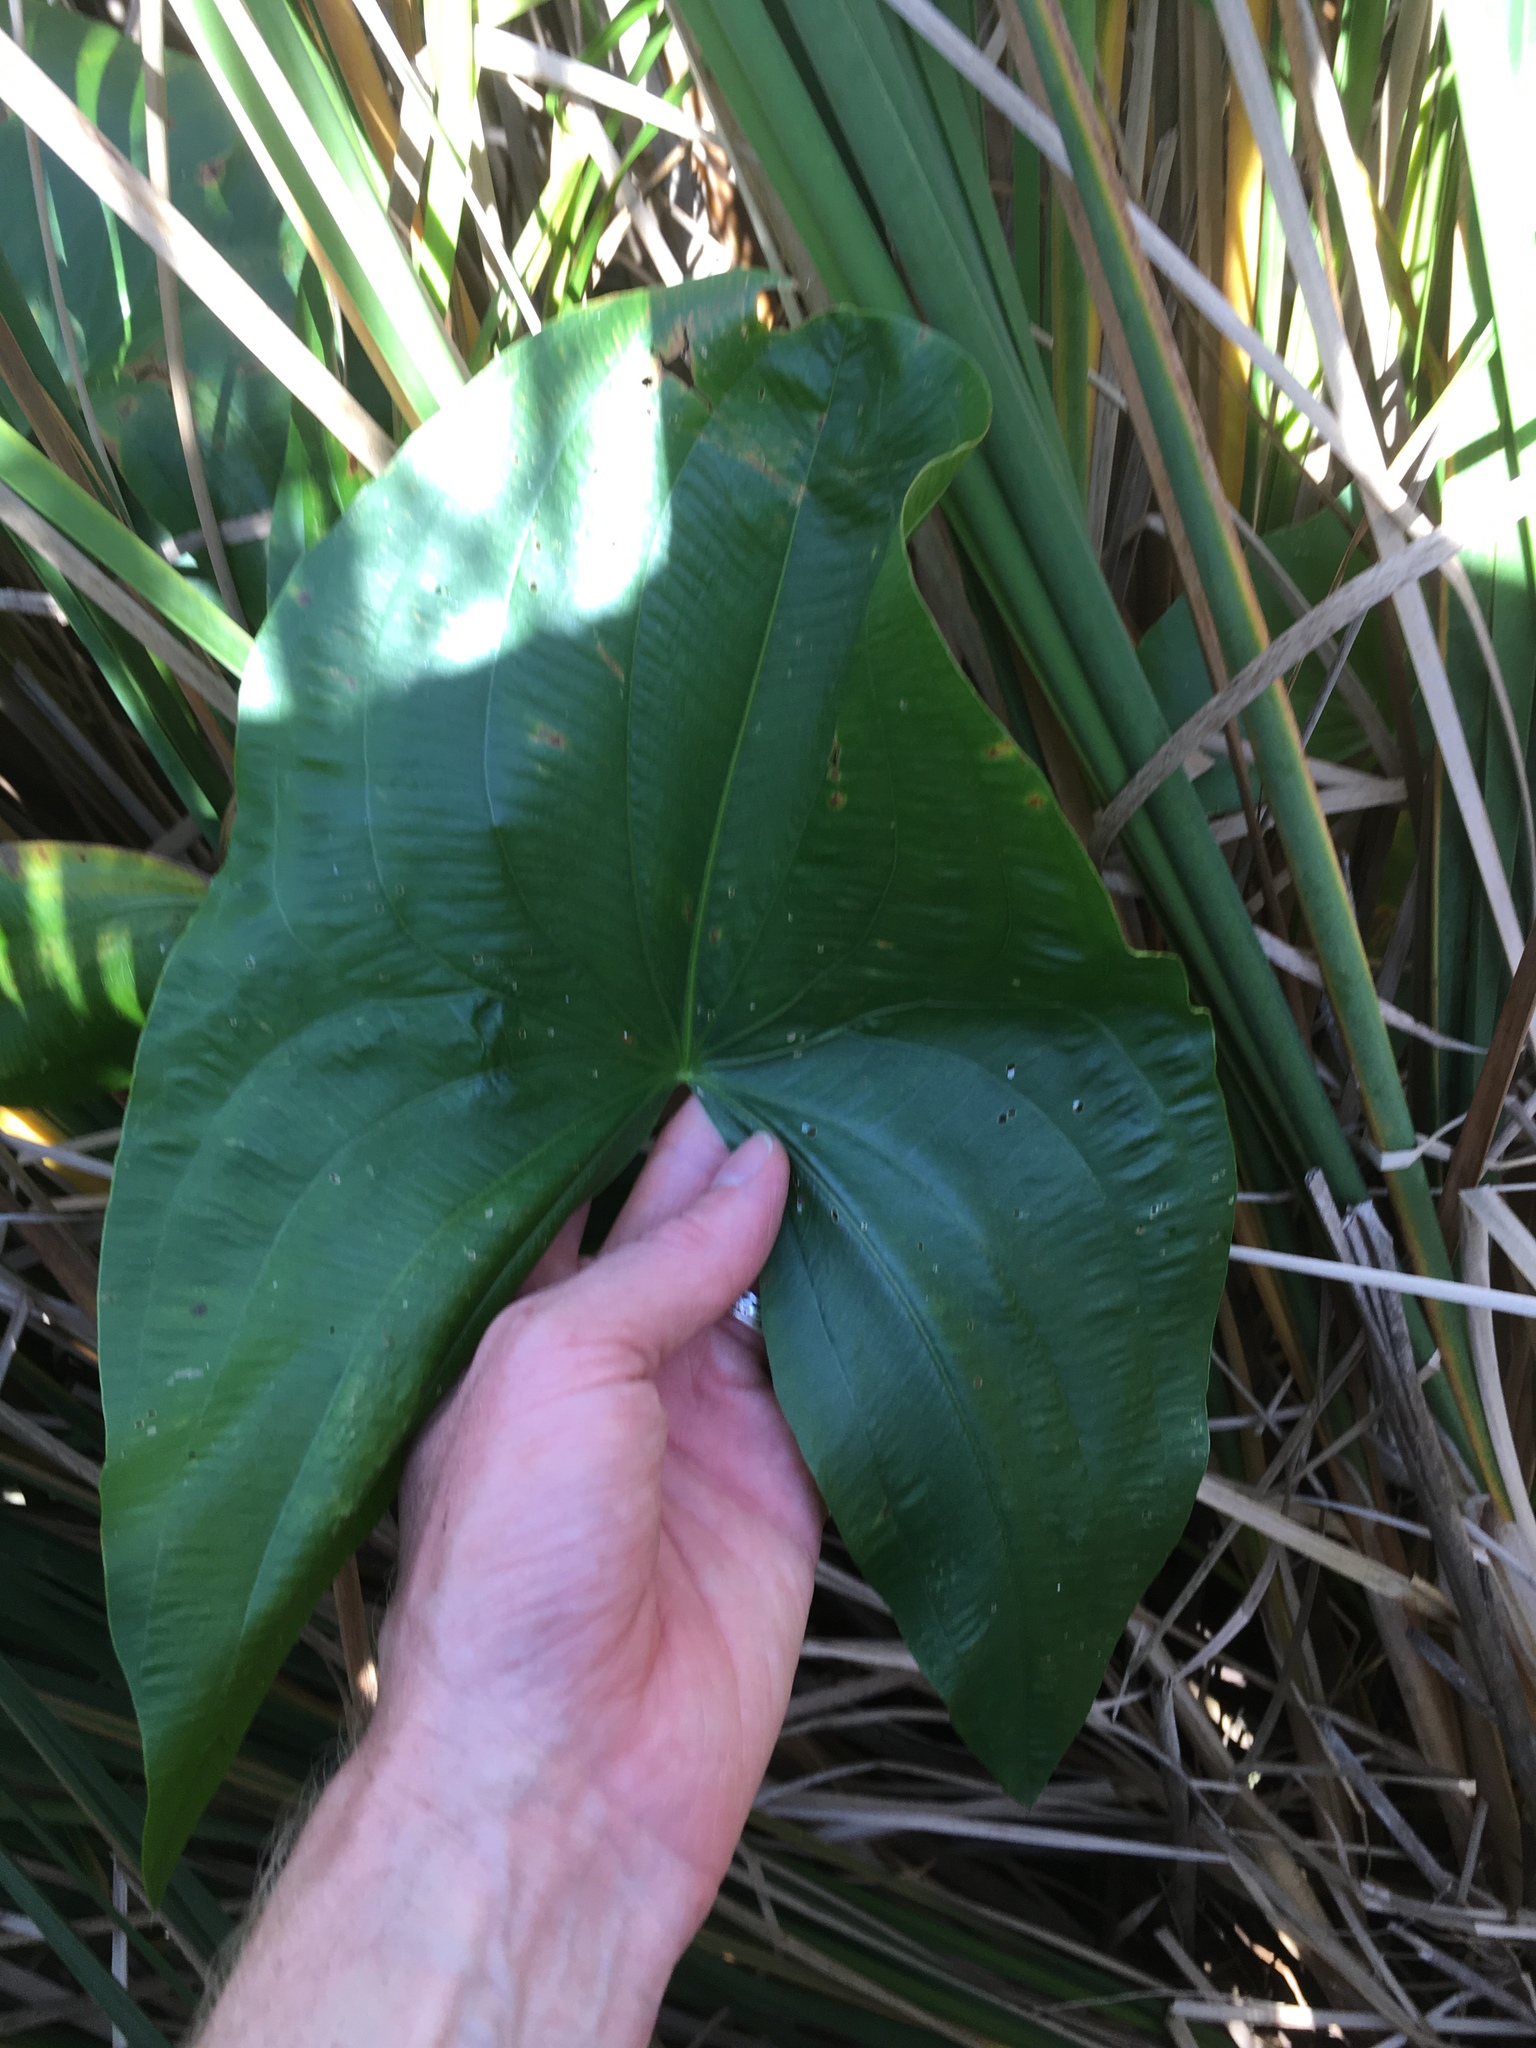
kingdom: Plantae
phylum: Tracheophyta
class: Liliopsida
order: Alismatales
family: Alismataceae
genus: Sagittaria
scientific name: Sagittaria latifolia
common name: Duck-potato
